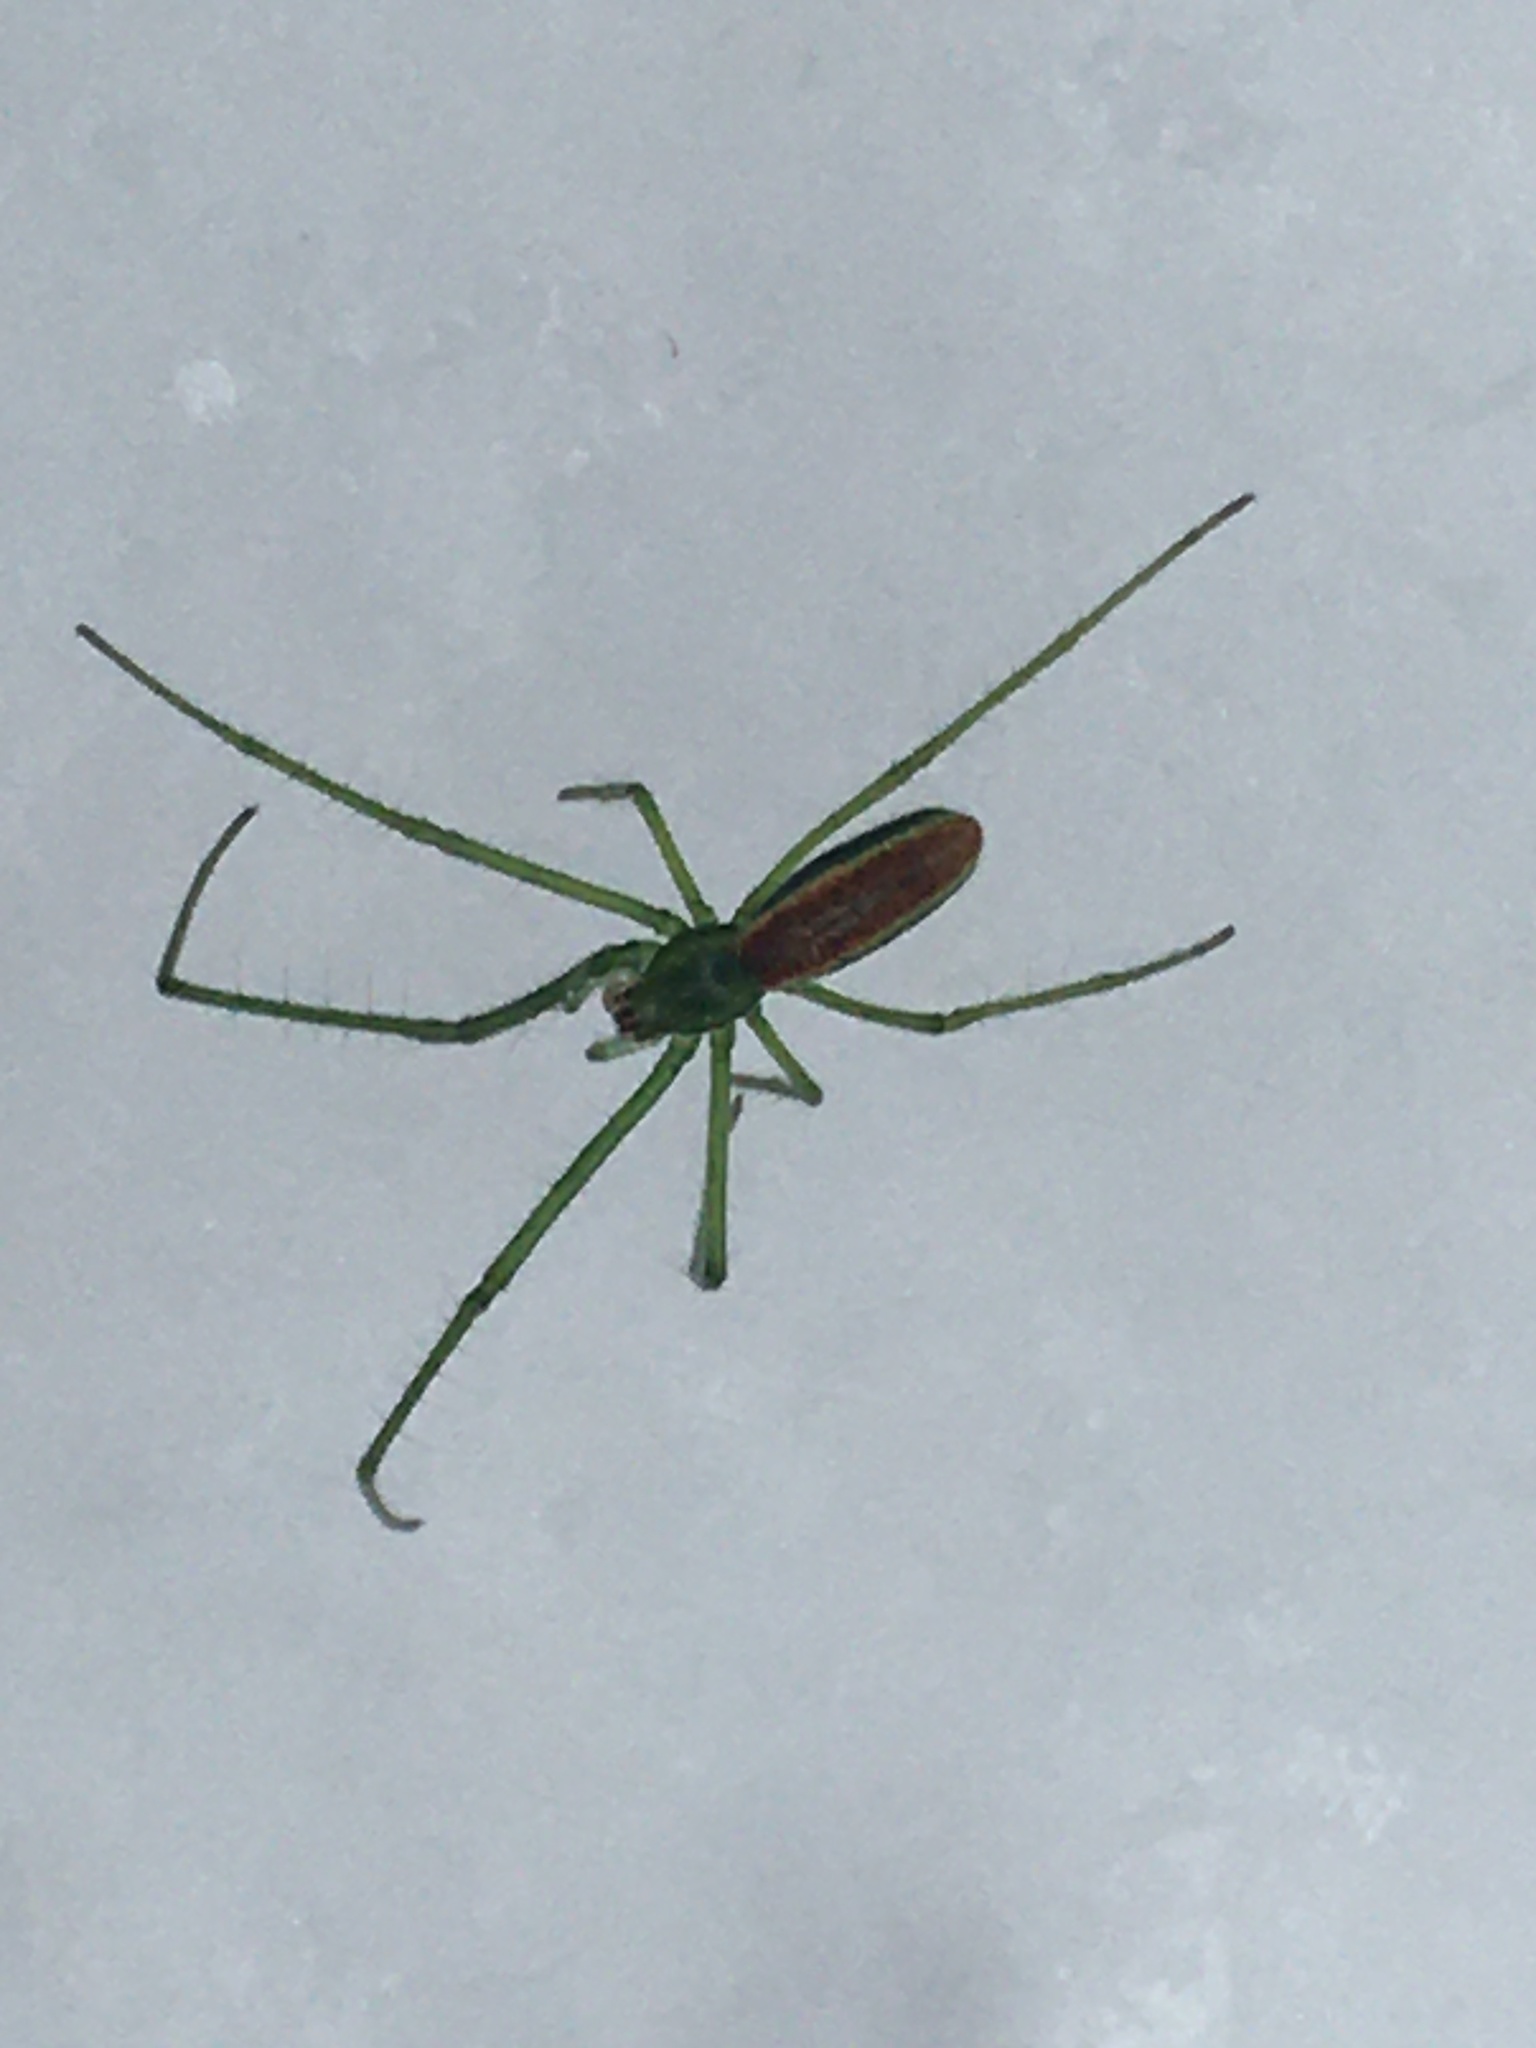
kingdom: Animalia
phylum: Arthropoda
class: Arachnida
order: Araneae
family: Tetragnathidae
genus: Tetragnatha
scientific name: Tetragnatha viridis
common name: Green long-jawed spider
